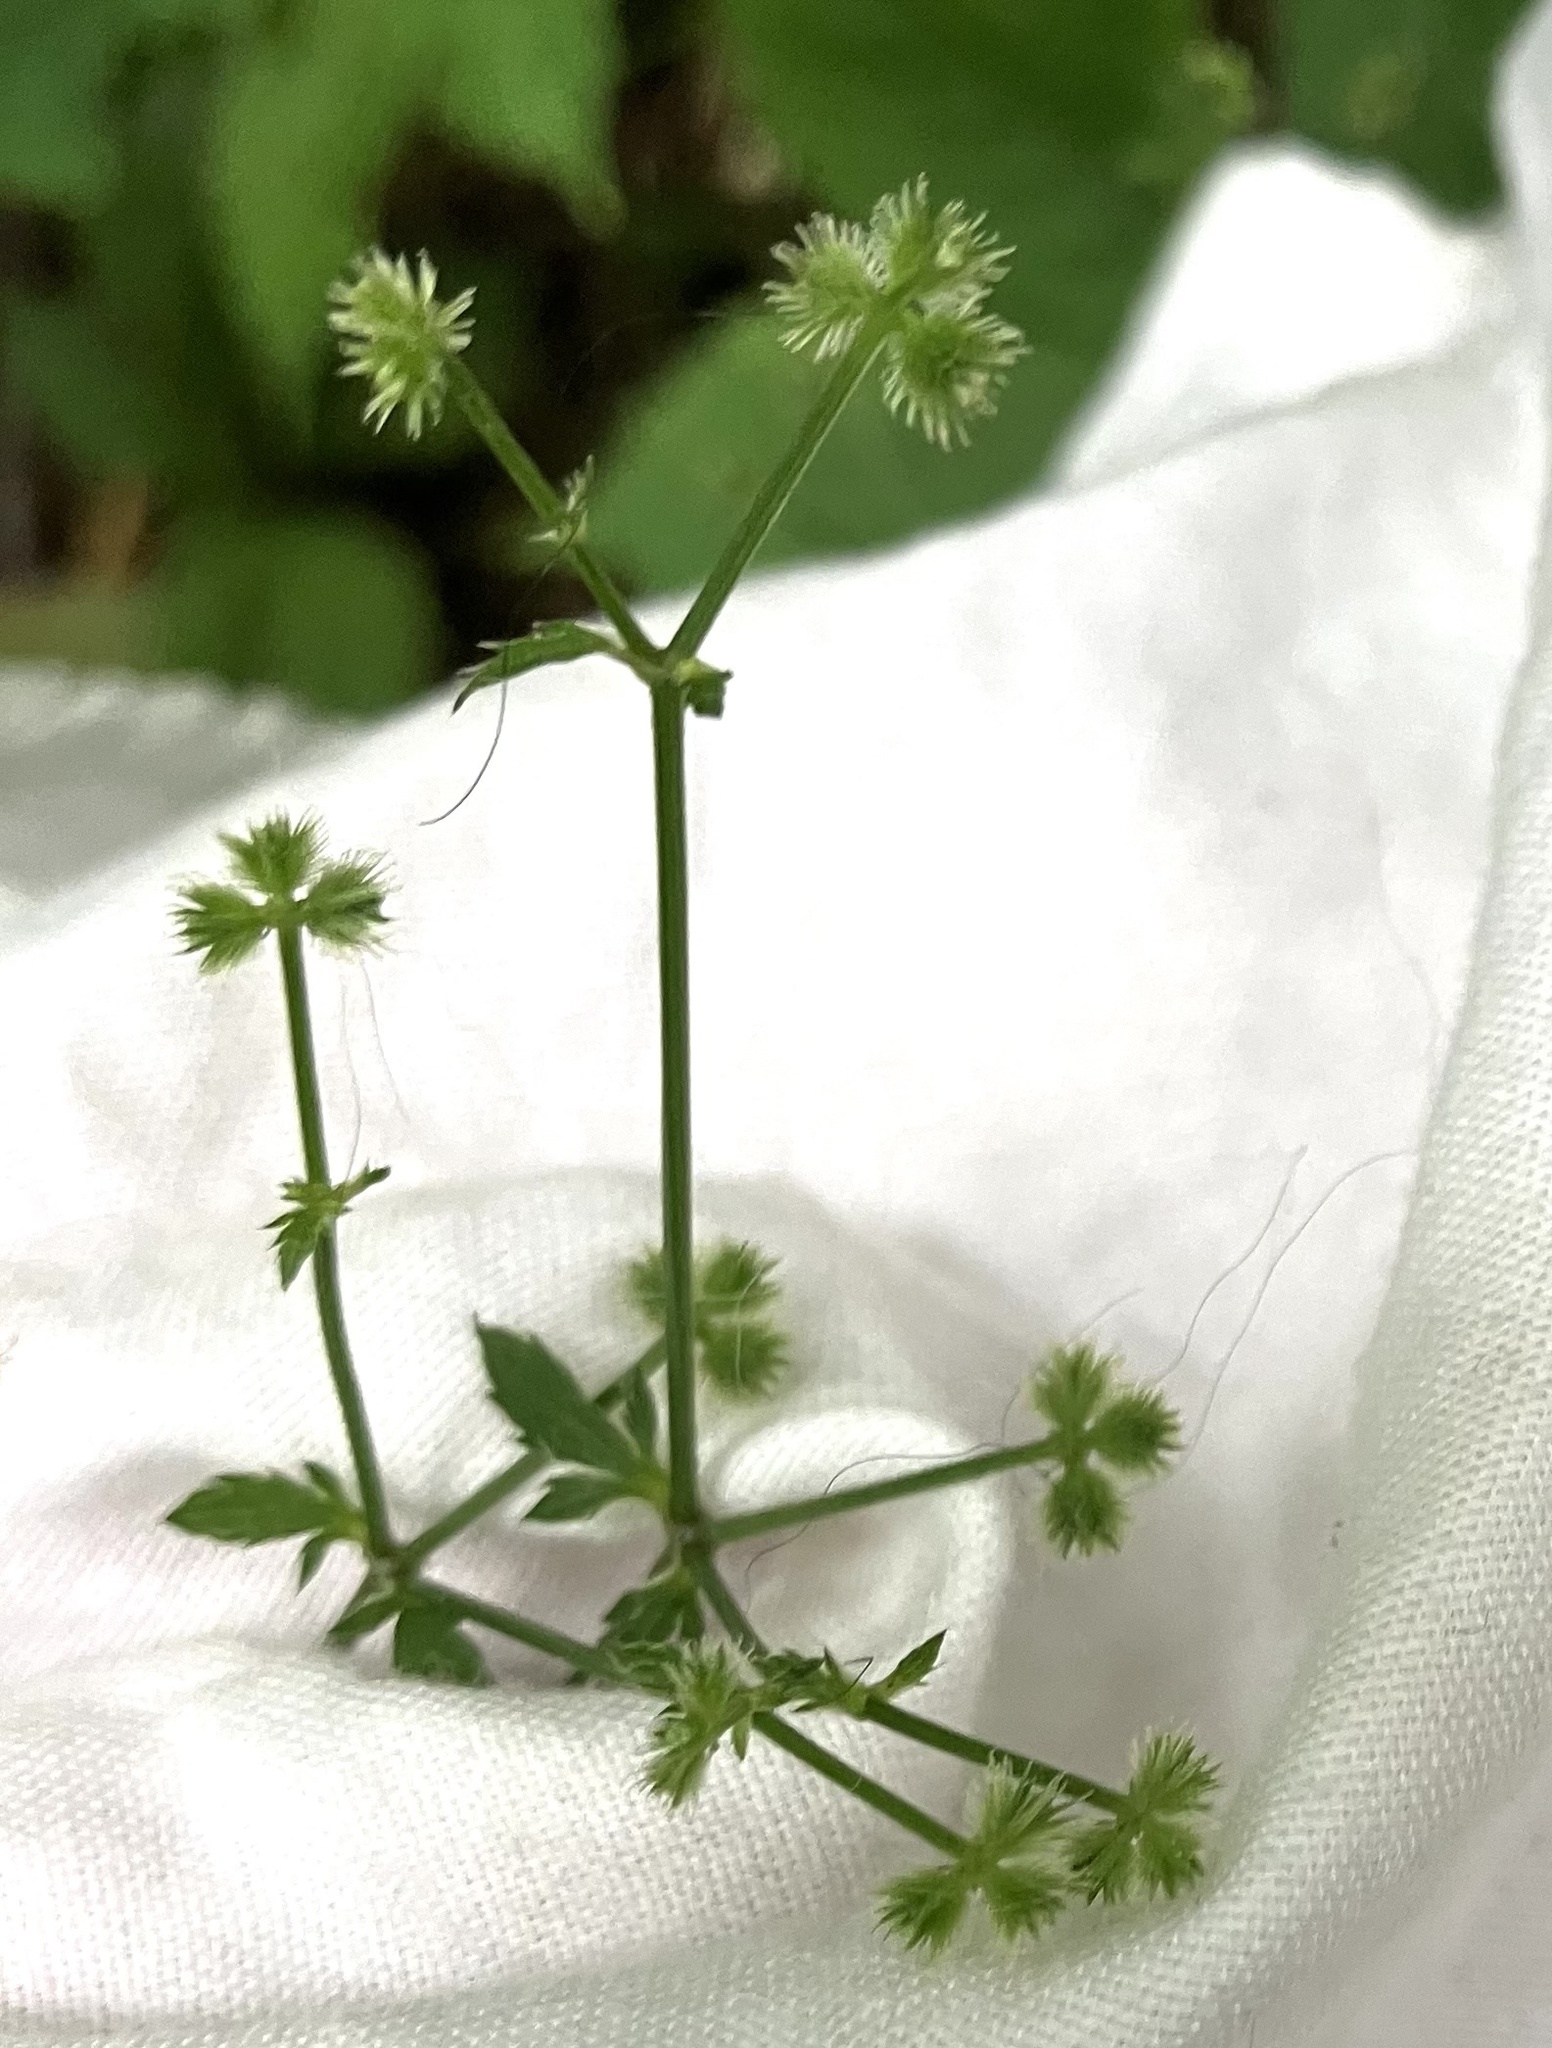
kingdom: Plantae
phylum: Tracheophyta
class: Magnoliopsida
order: Apiales
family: Apiaceae
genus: Sanicula
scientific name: Sanicula canadensis
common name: Canada sanicle
